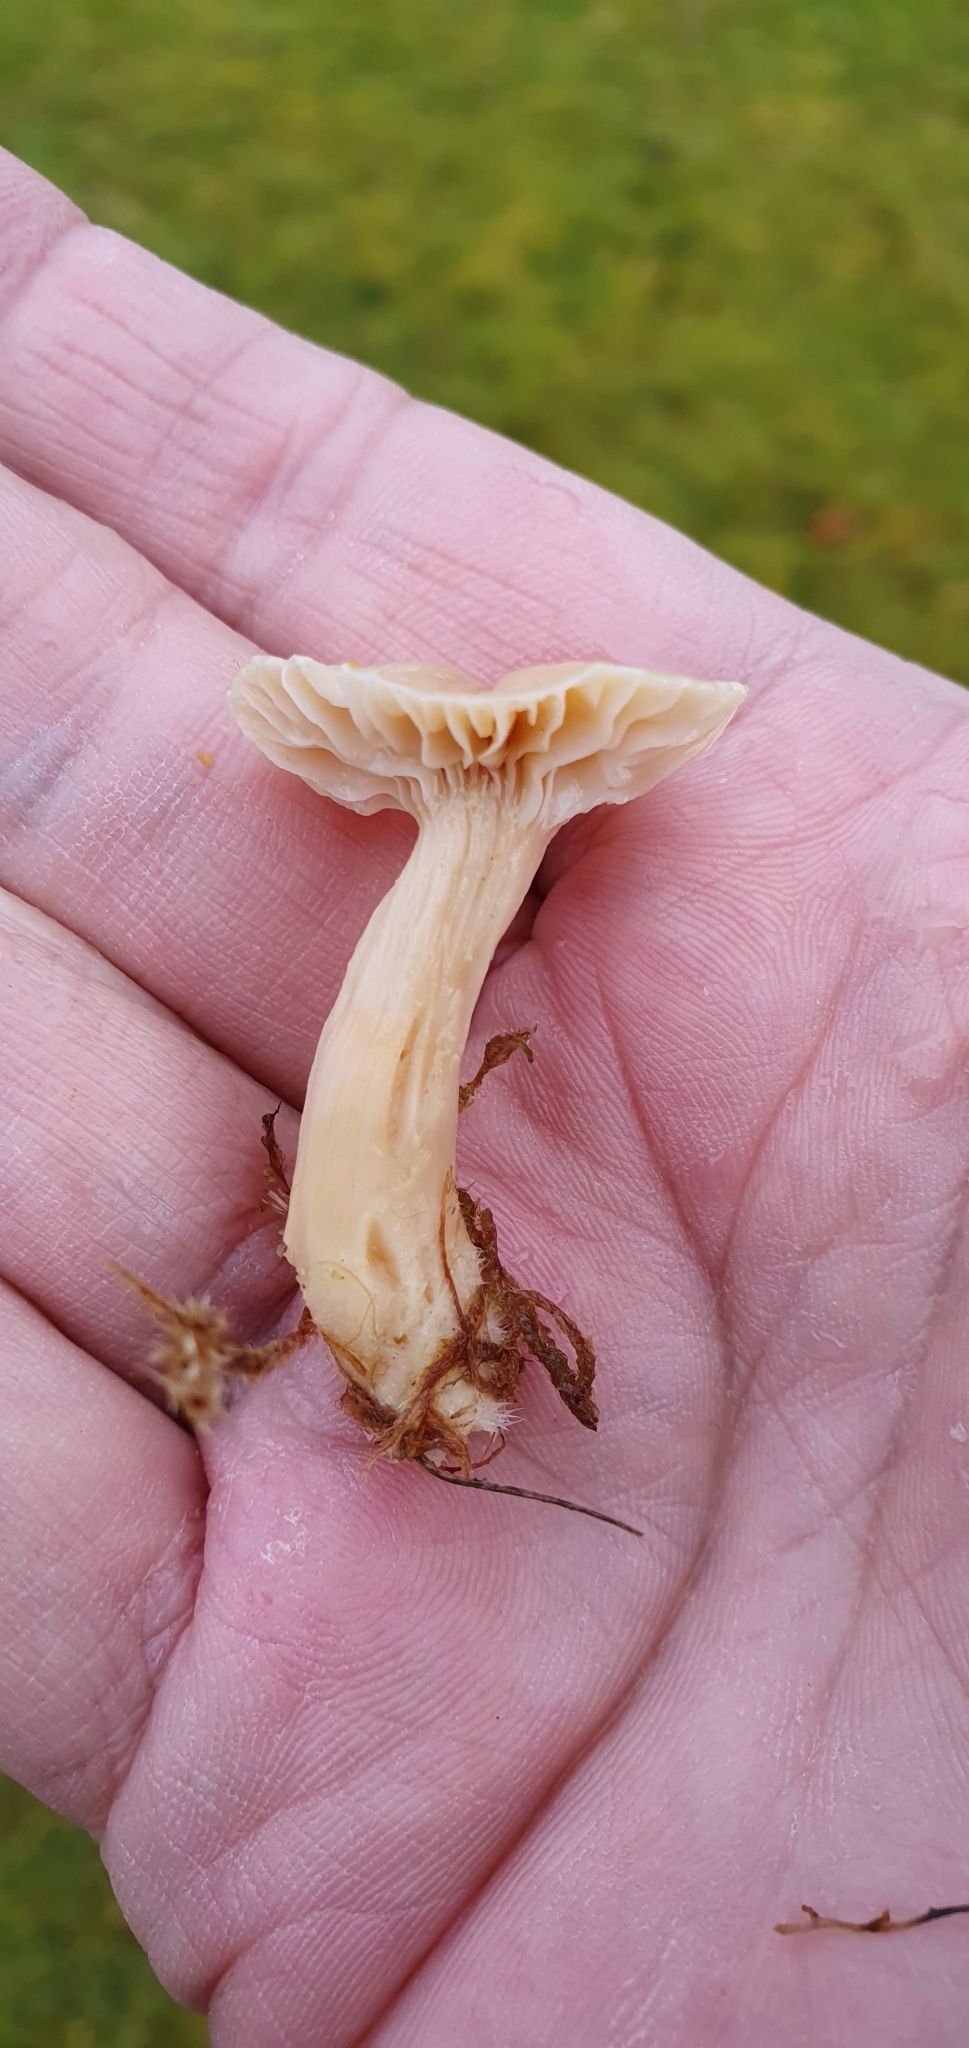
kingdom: Fungi
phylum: Basidiomycota
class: Agaricomycetes
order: Agaricales
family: Hygrophoraceae
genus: Cuphophyllus
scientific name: Cuphophyllus pratensis
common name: Meadow waxcap
